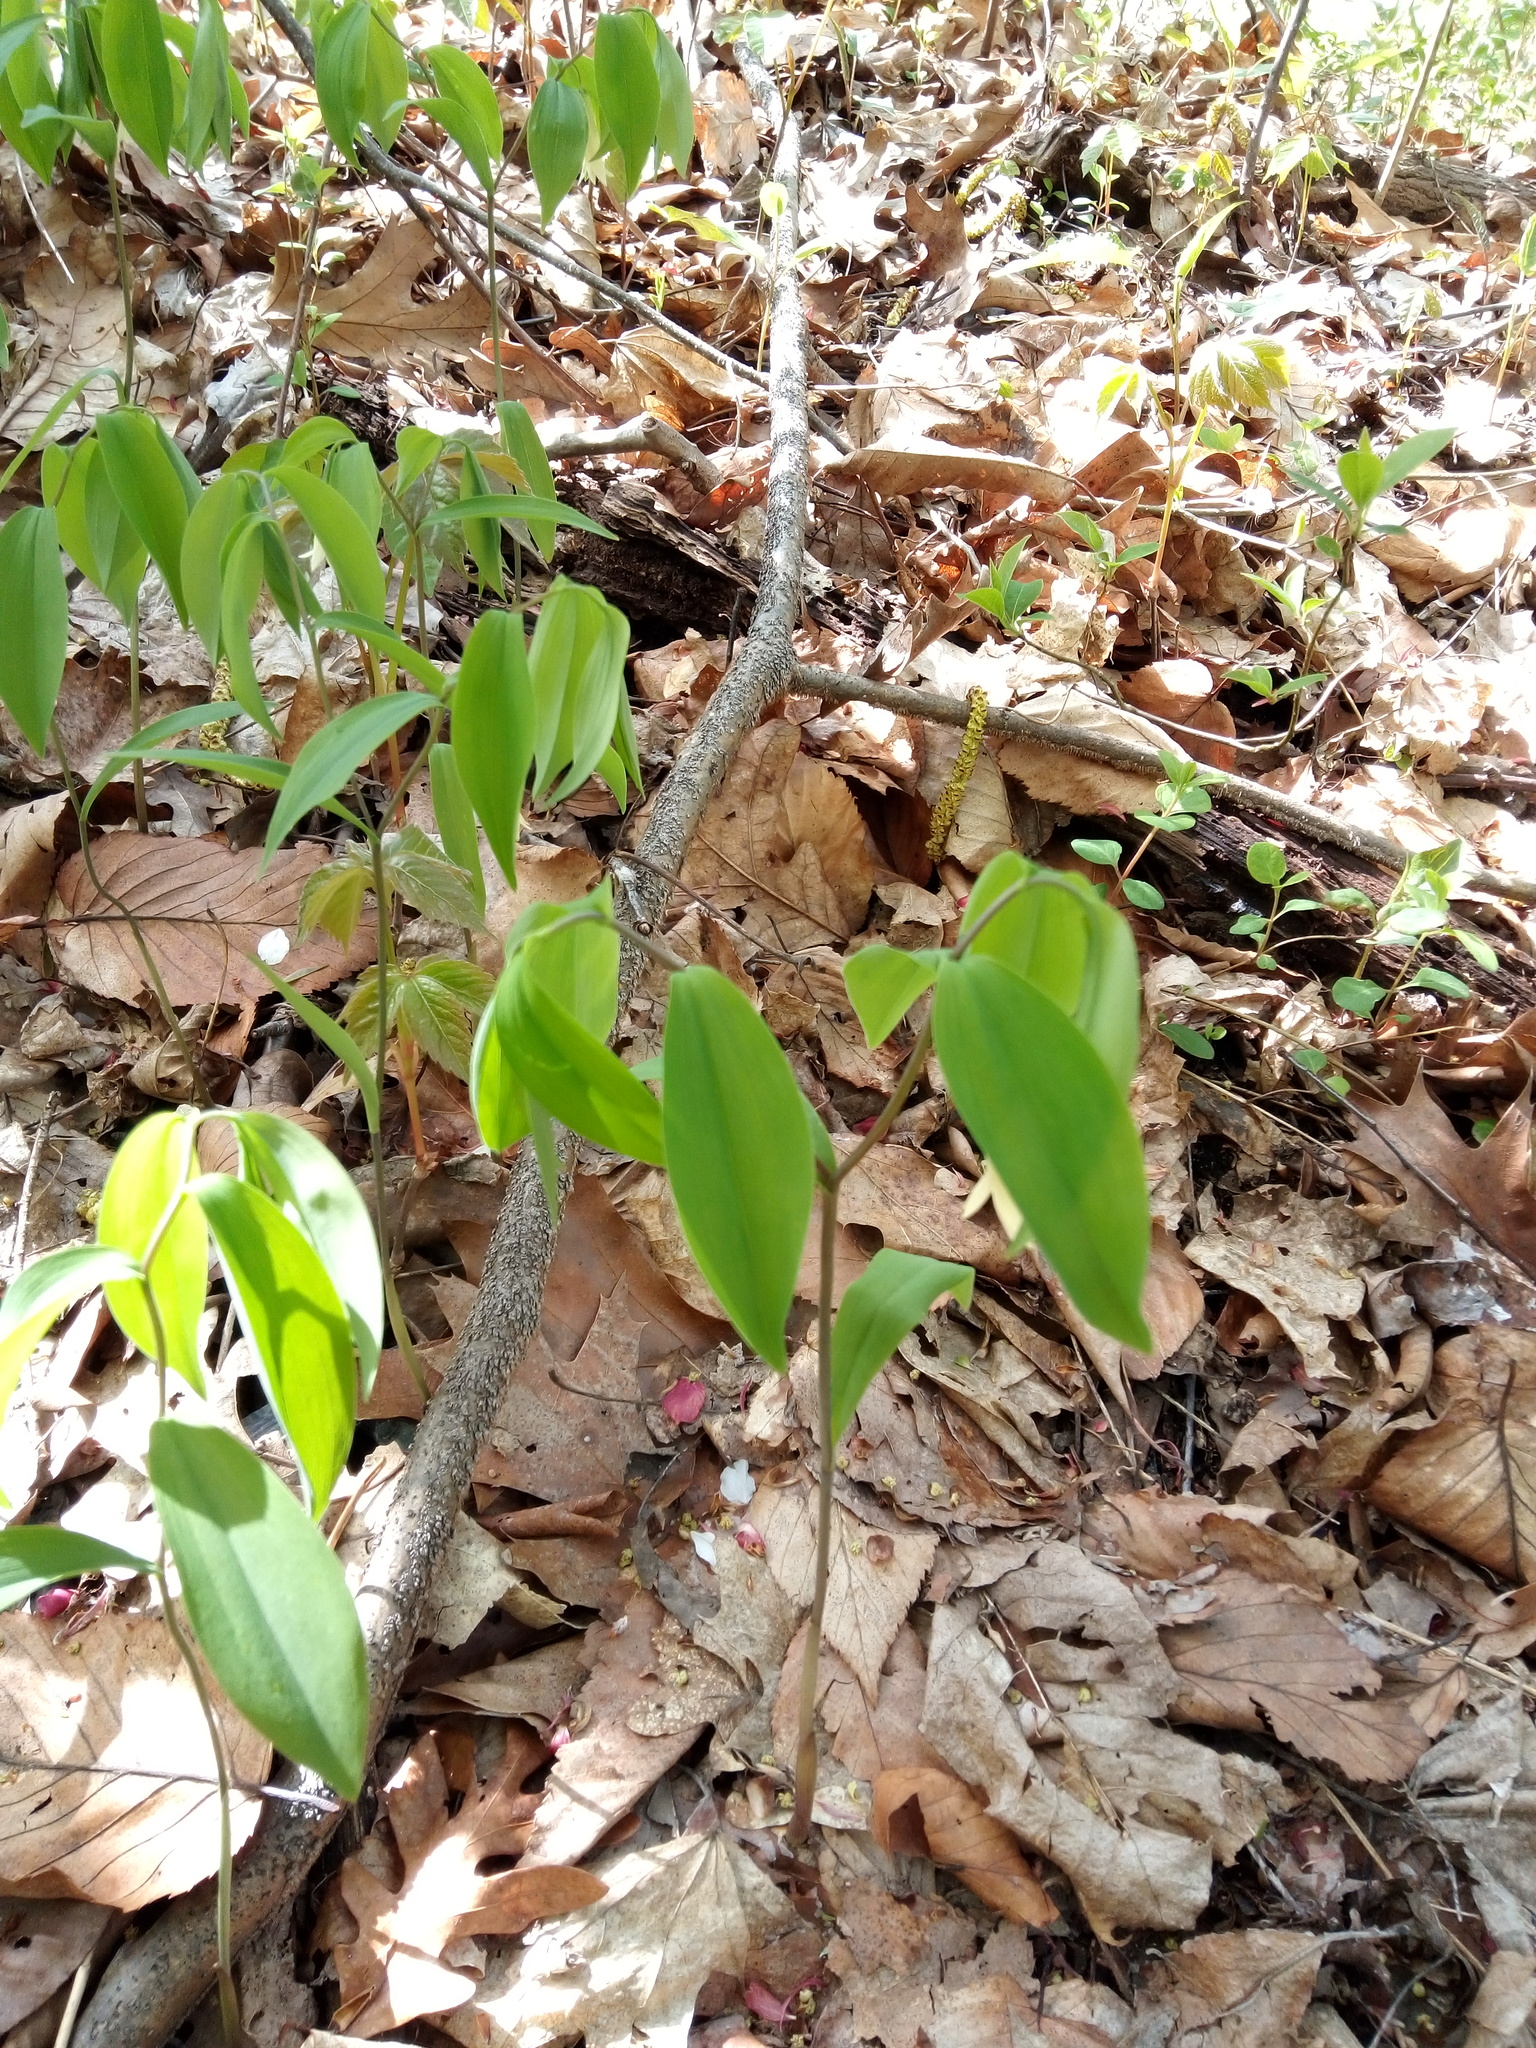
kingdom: Plantae
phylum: Tracheophyta
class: Liliopsida
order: Liliales
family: Colchicaceae
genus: Uvularia
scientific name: Uvularia sessilifolia
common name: Straw-lily
